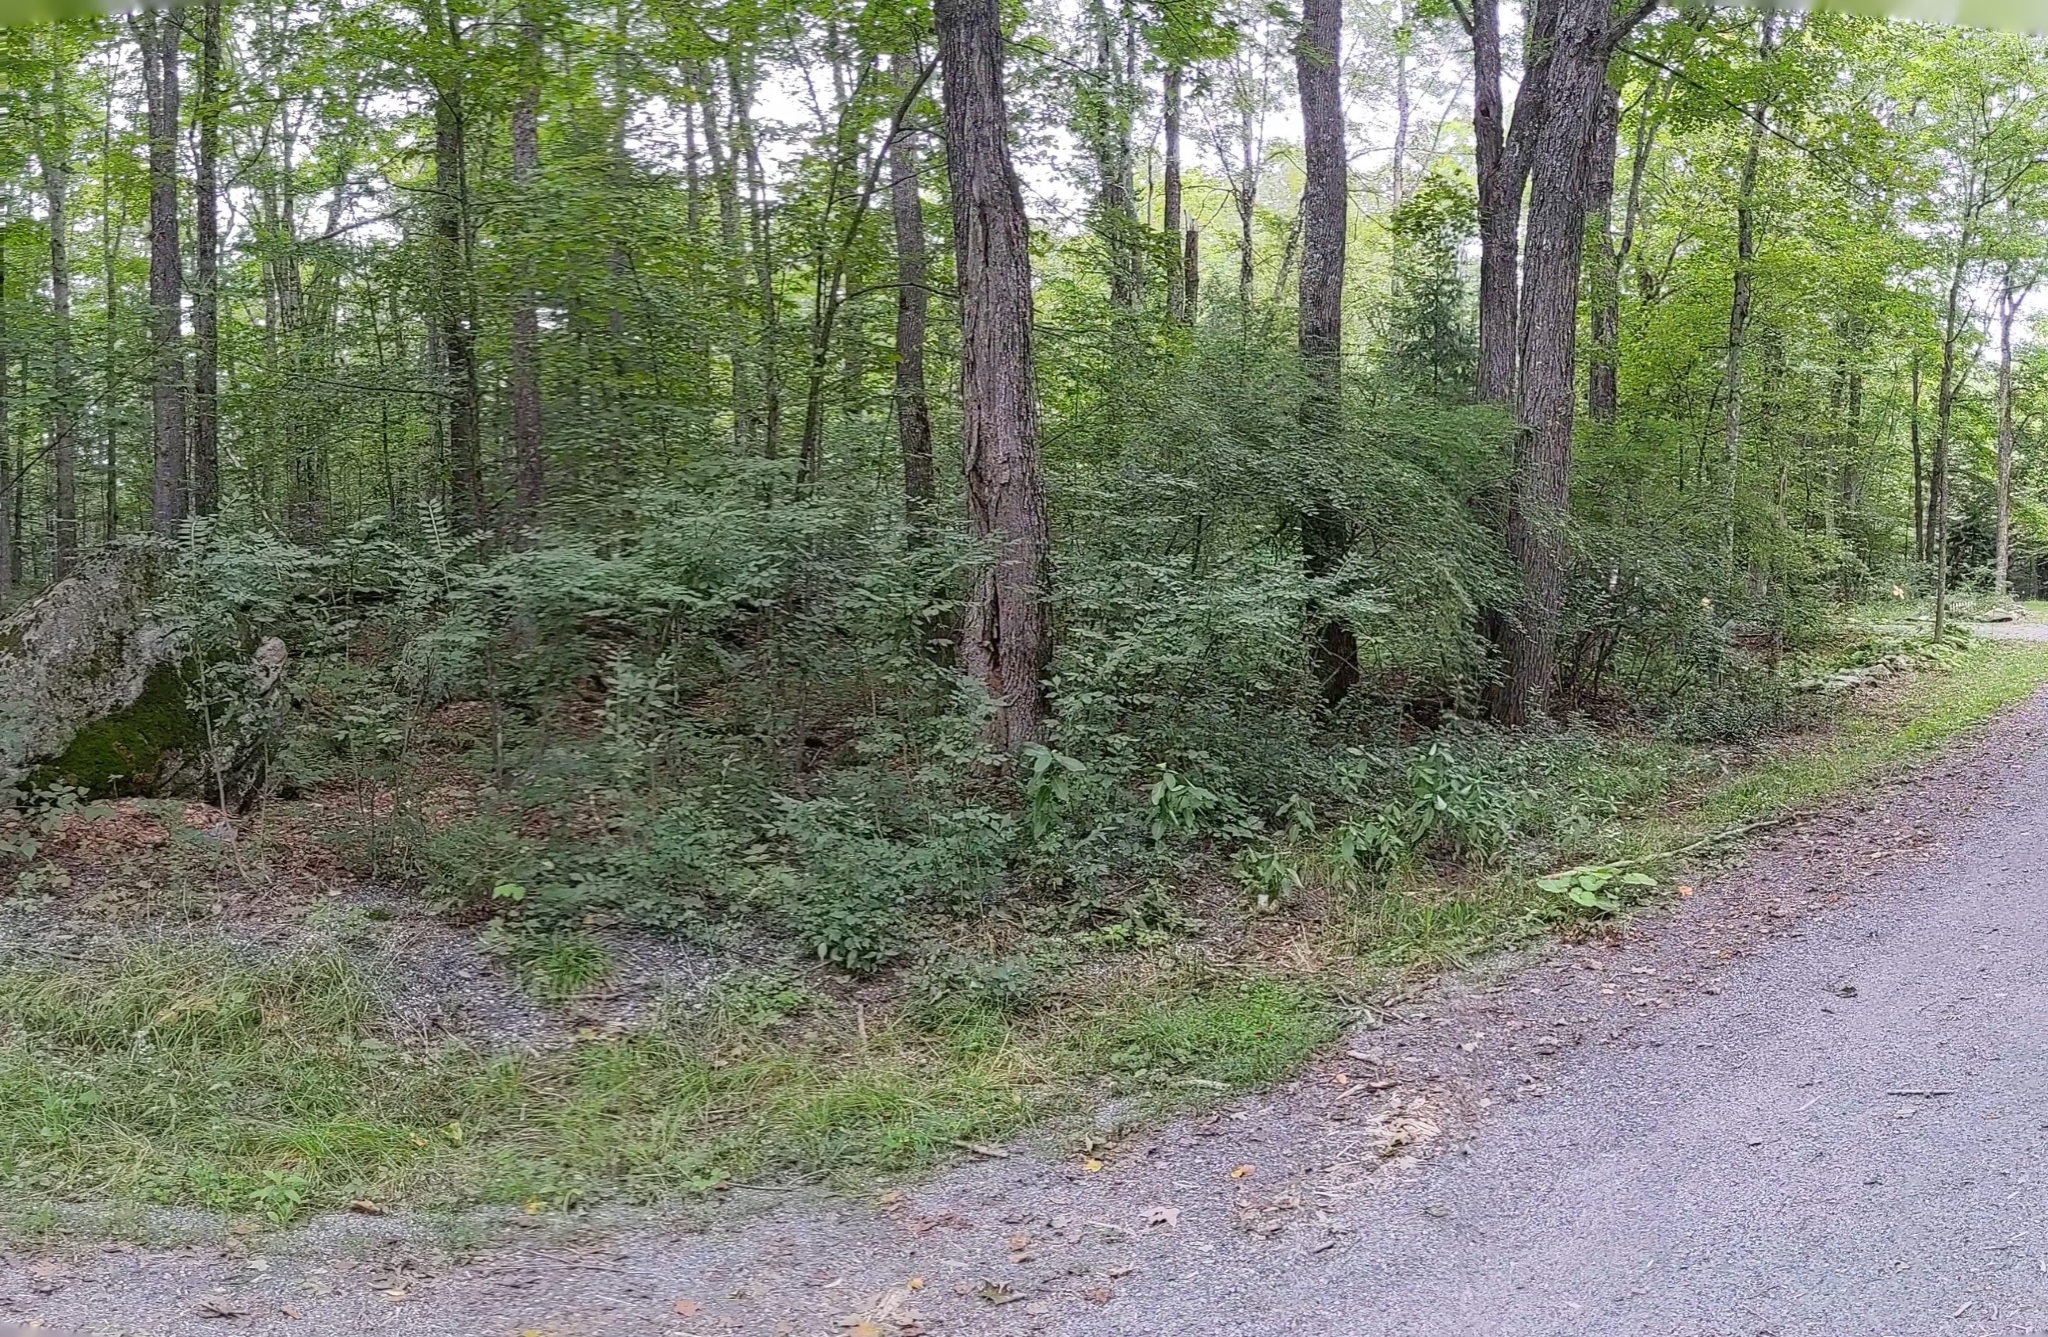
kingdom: Plantae
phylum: Tracheophyta
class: Magnoliopsida
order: Celastrales
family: Celastraceae
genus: Euonymus
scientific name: Euonymus alatus
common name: Winged euonymus
